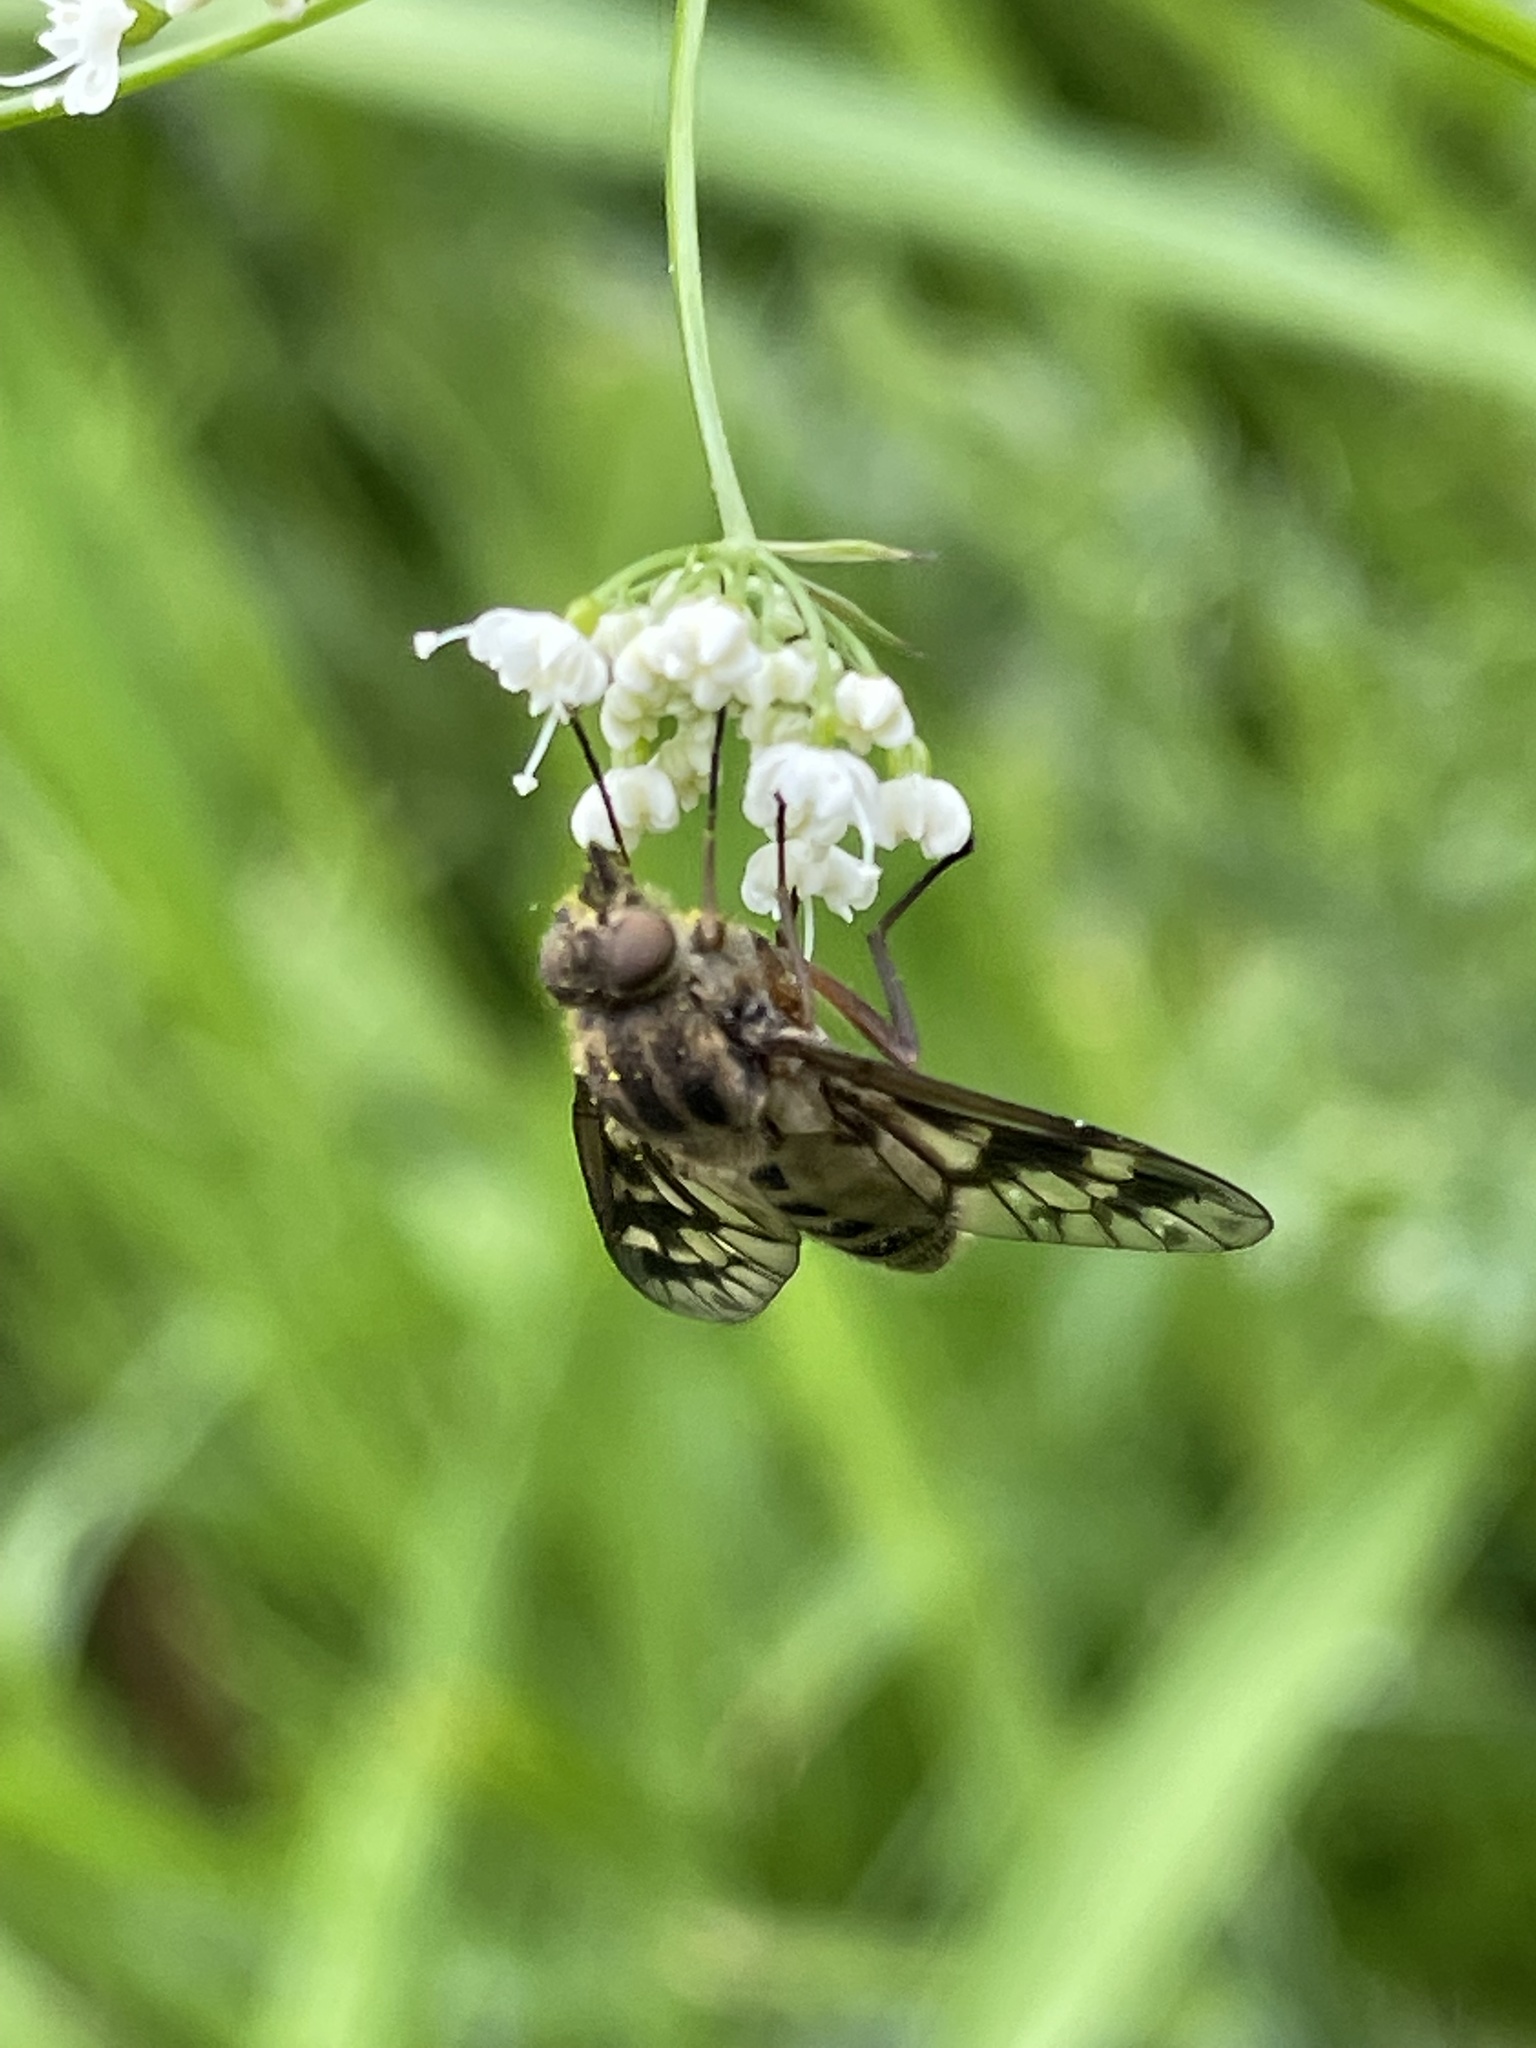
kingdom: Animalia
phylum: Arthropoda
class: Insecta
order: Diptera
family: Athericidae
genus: Atherix
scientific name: Atherix ibis
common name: Yellow-legged water-snipefly
